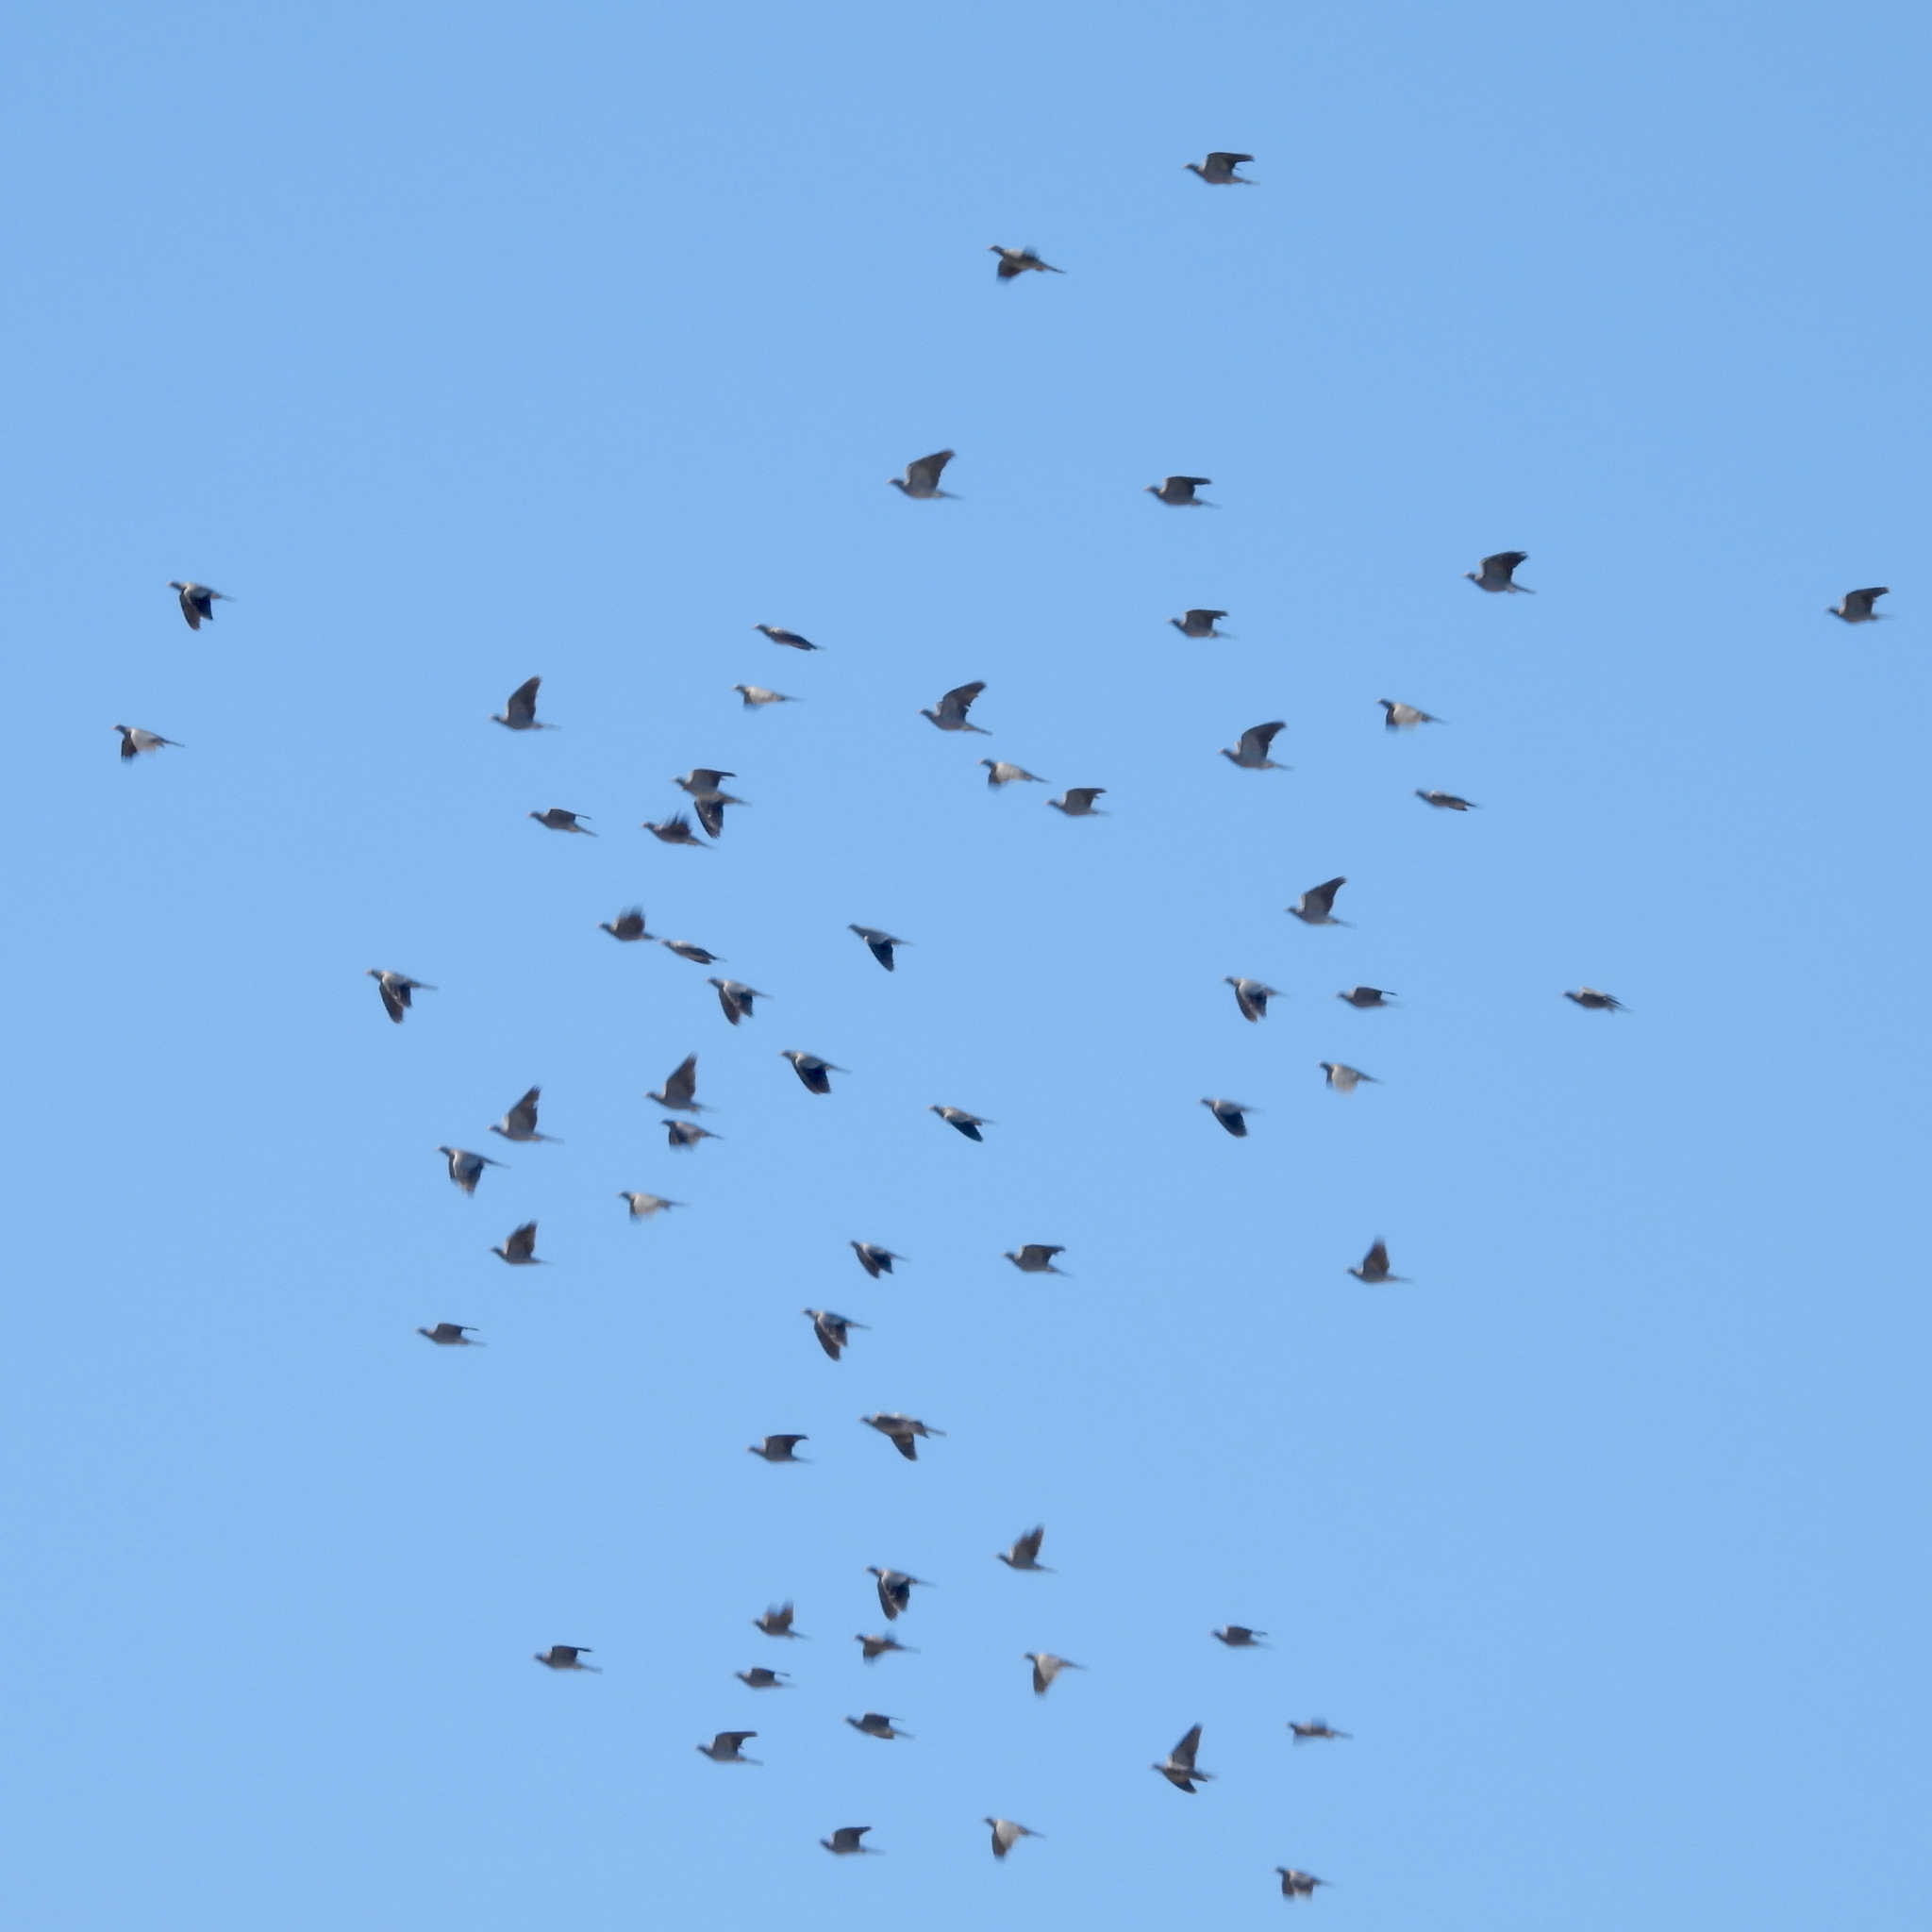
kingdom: Animalia
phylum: Chordata
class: Aves
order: Columbiformes
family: Columbidae
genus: Patagioenas
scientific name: Patagioenas fasciata
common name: Band-tailed pigeon
